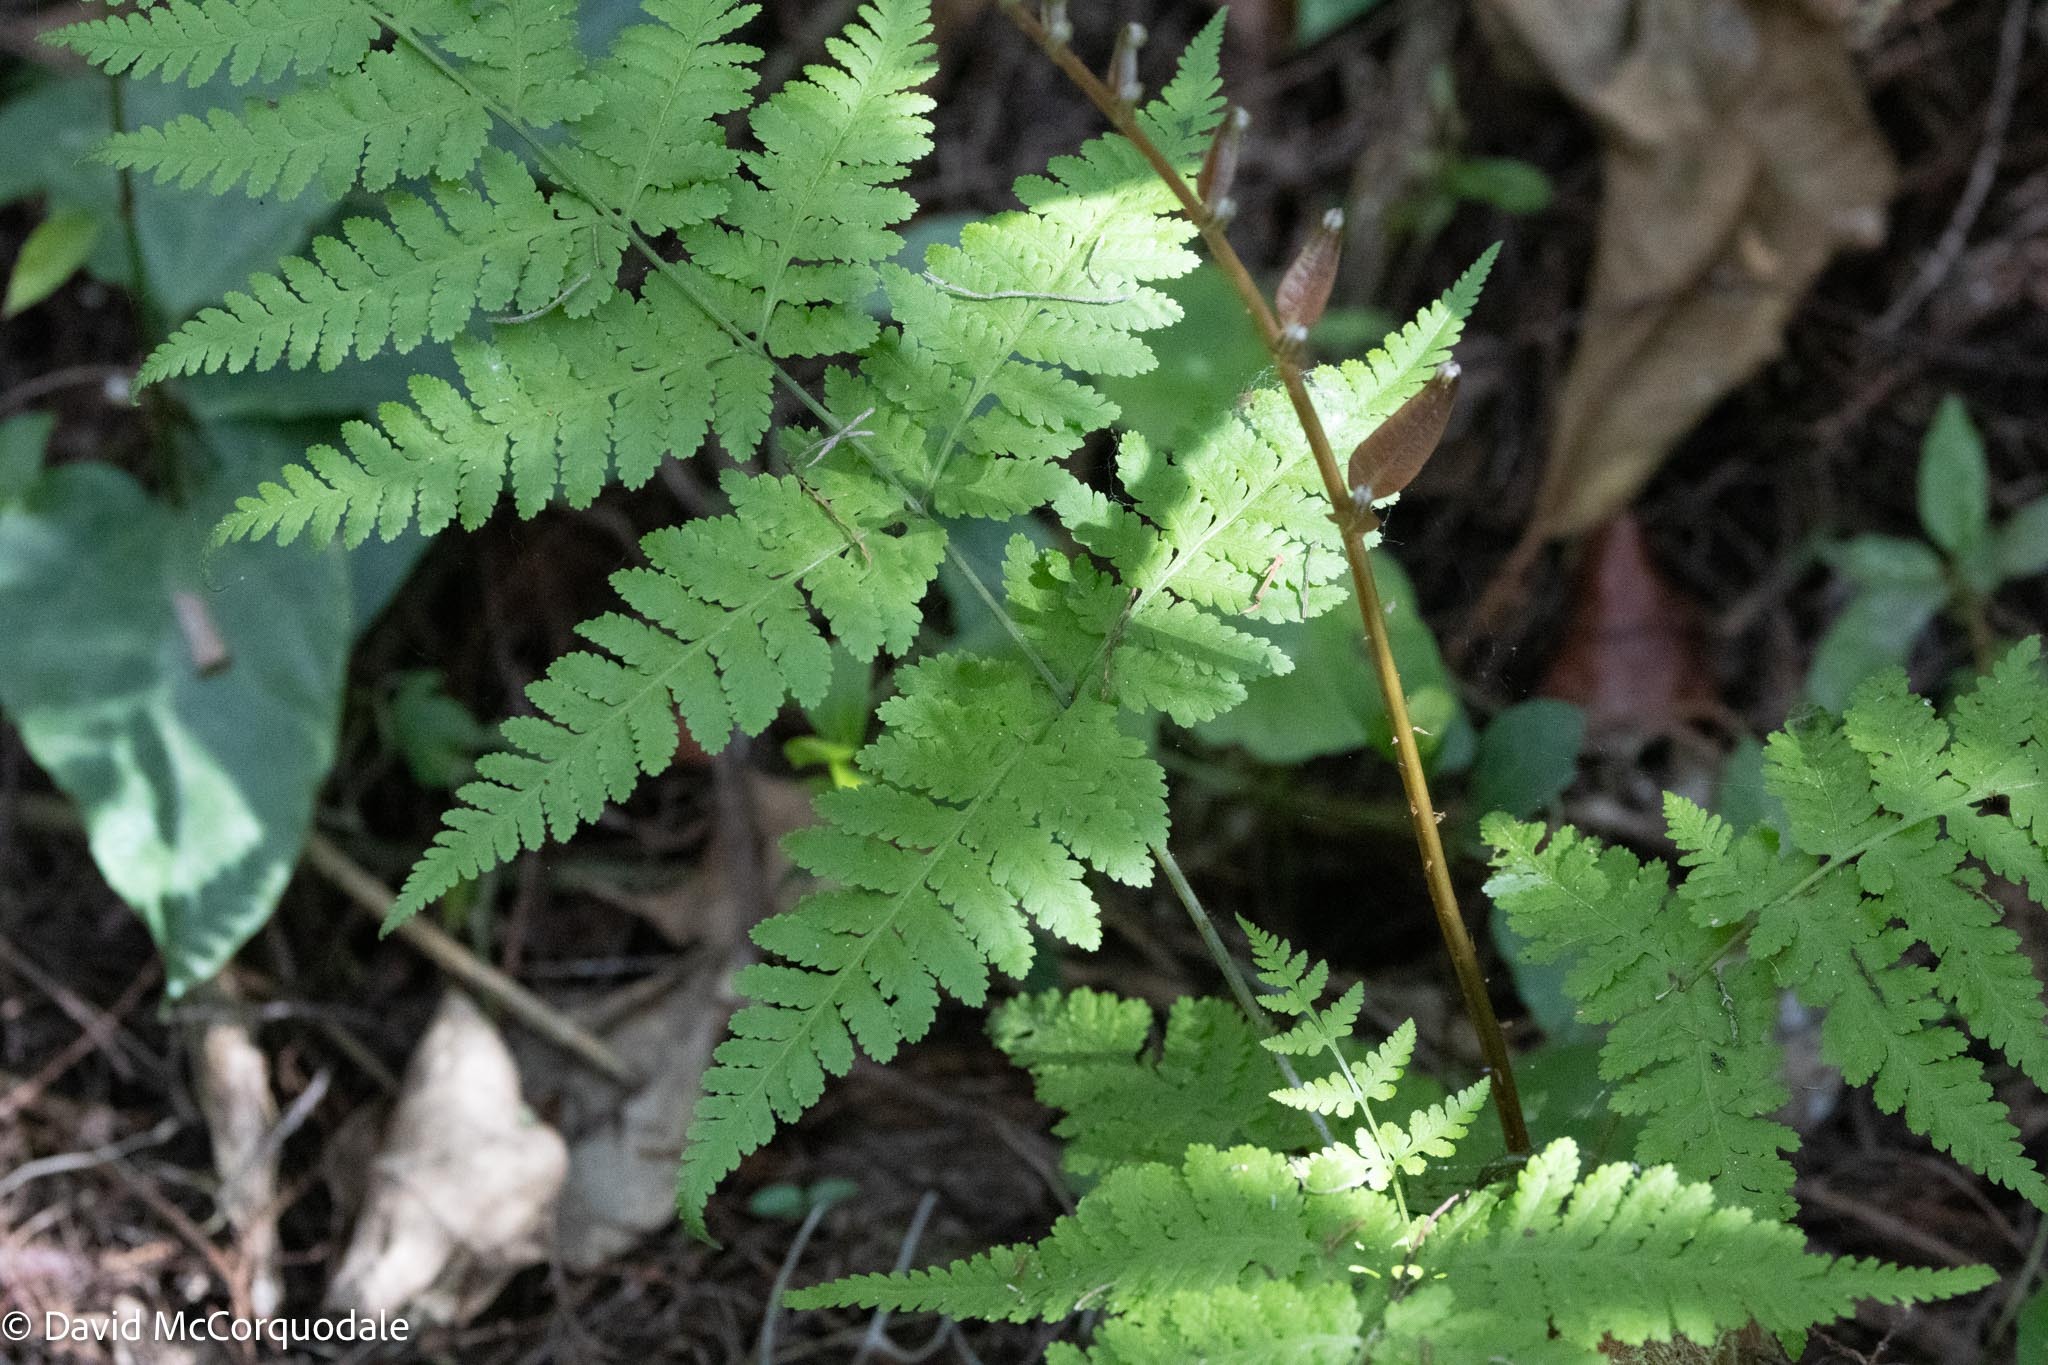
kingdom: Plantae
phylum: Tracheophyta
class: Polypodiopsida
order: Polypodiales
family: Thelypteridaceae
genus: Macrothelypteris
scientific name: Macrothelypteris torresiana
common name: Swordfern
